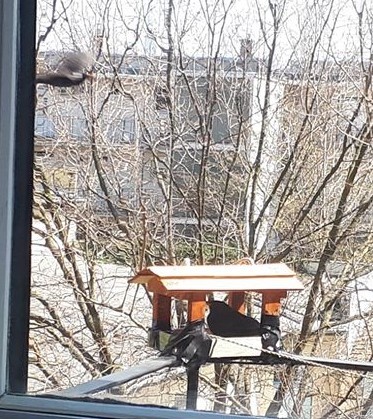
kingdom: Animalia
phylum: Chordata
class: Aves
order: Passeriformes
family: Turdidae
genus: Turdus
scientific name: Turdus merula
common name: Common blackbird
